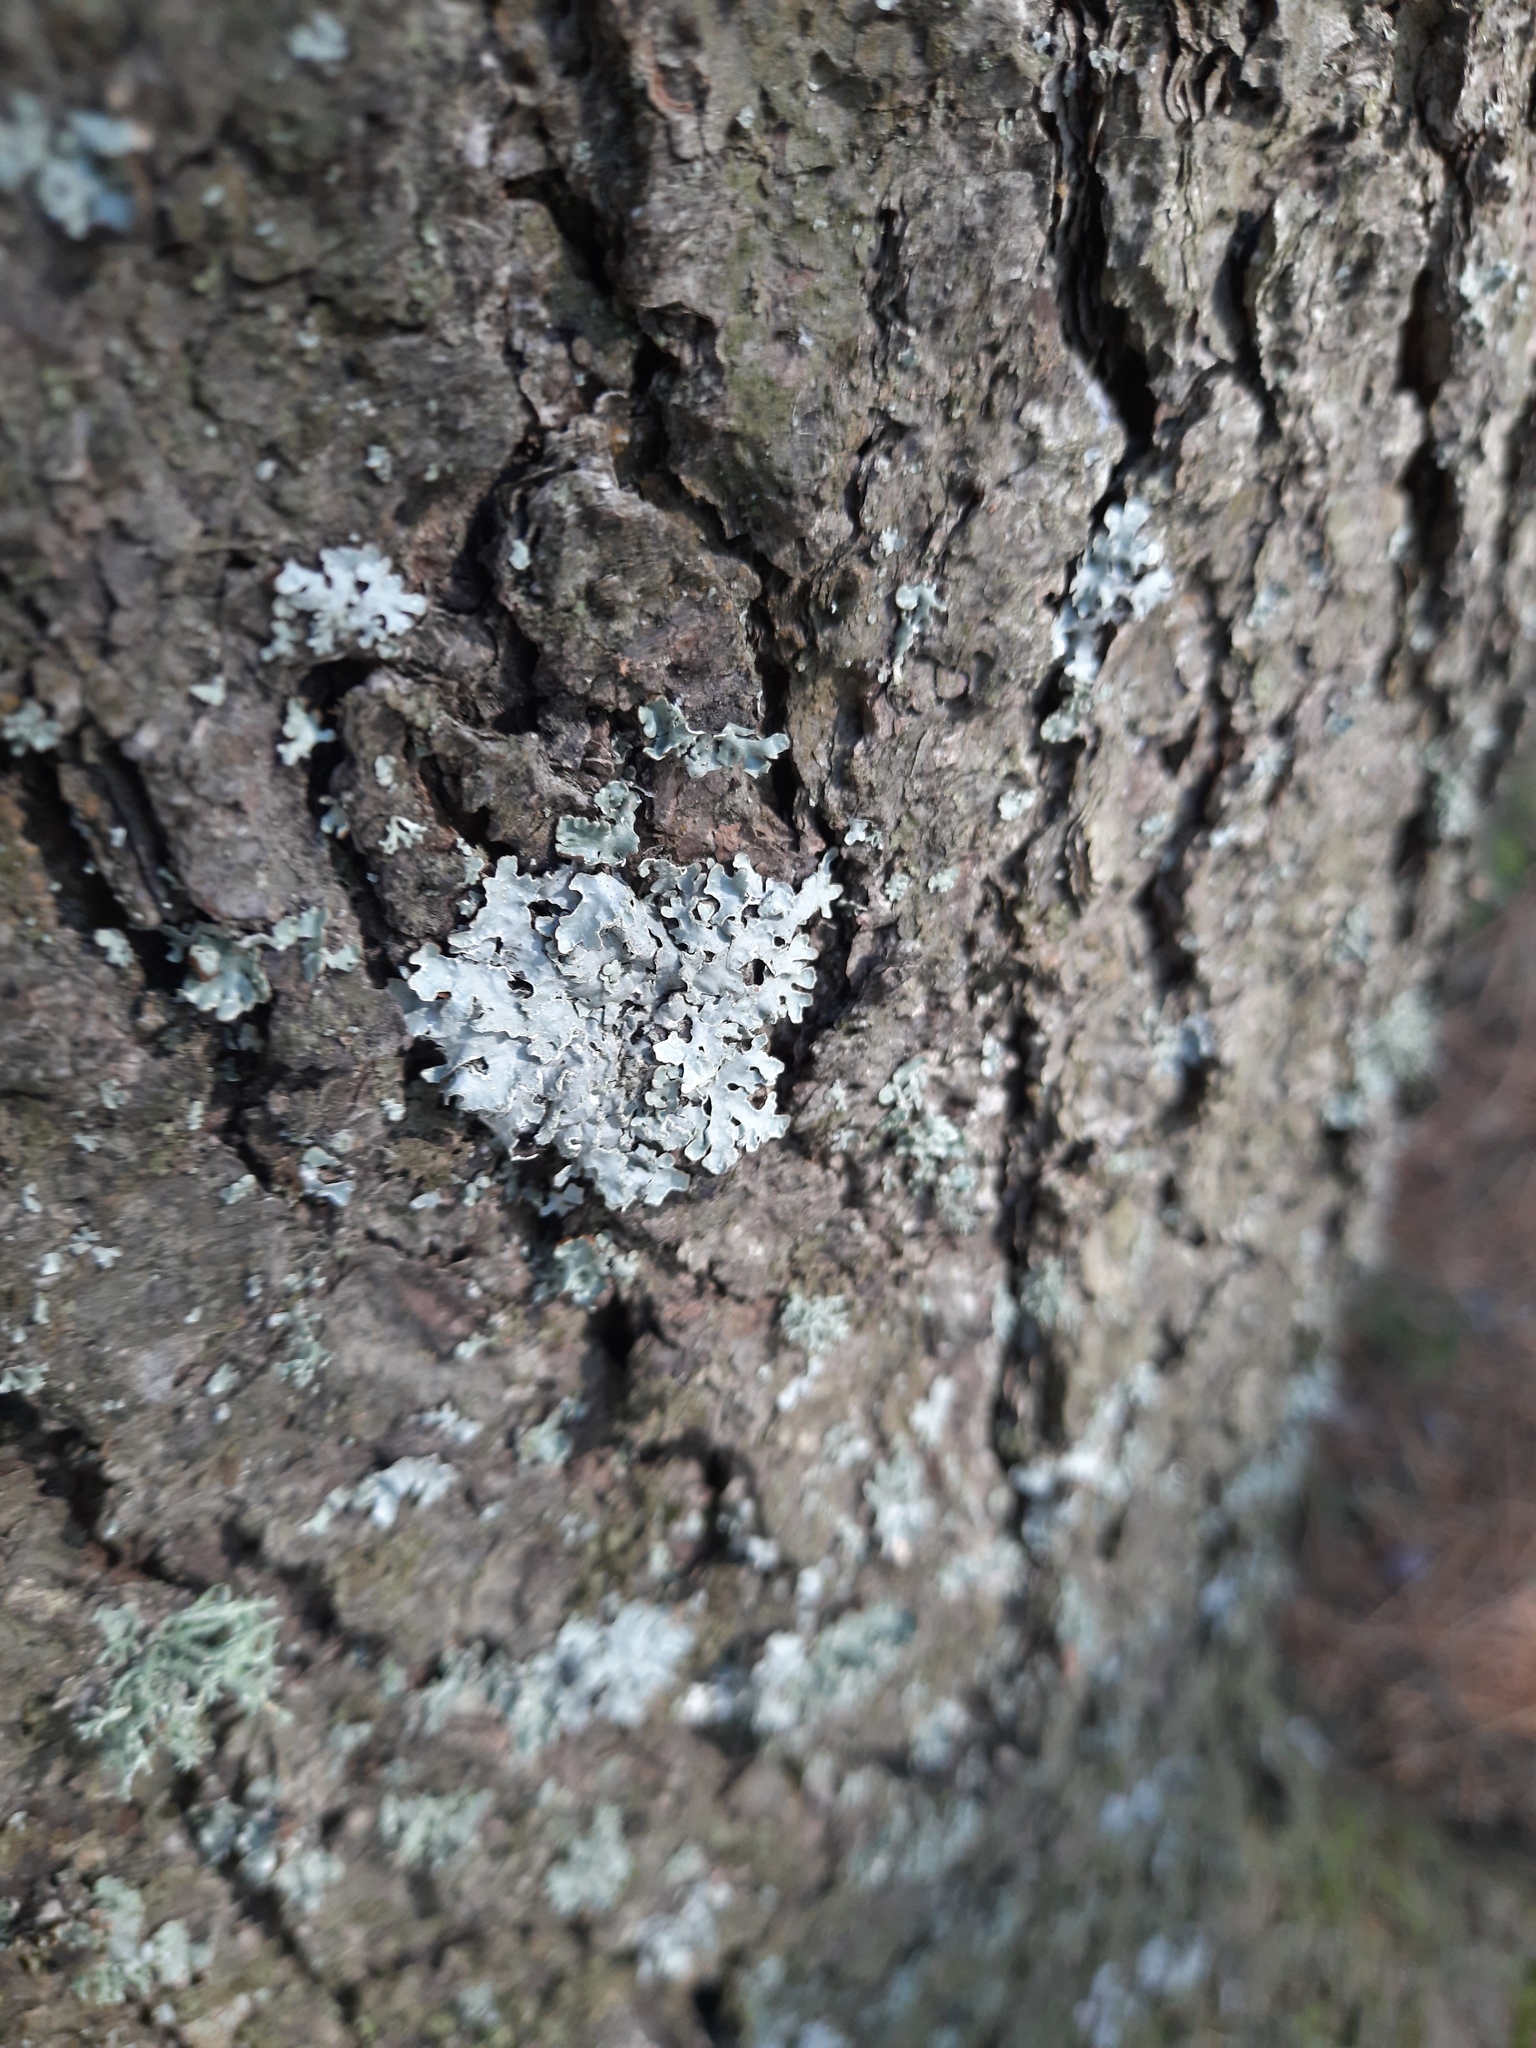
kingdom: Fungi
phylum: Ascomycota
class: Lecanoromycetes
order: Lecanorales
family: Parmeliaceae
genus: Parmelia
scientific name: Parmelia sulcata
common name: Netted shield lichen
